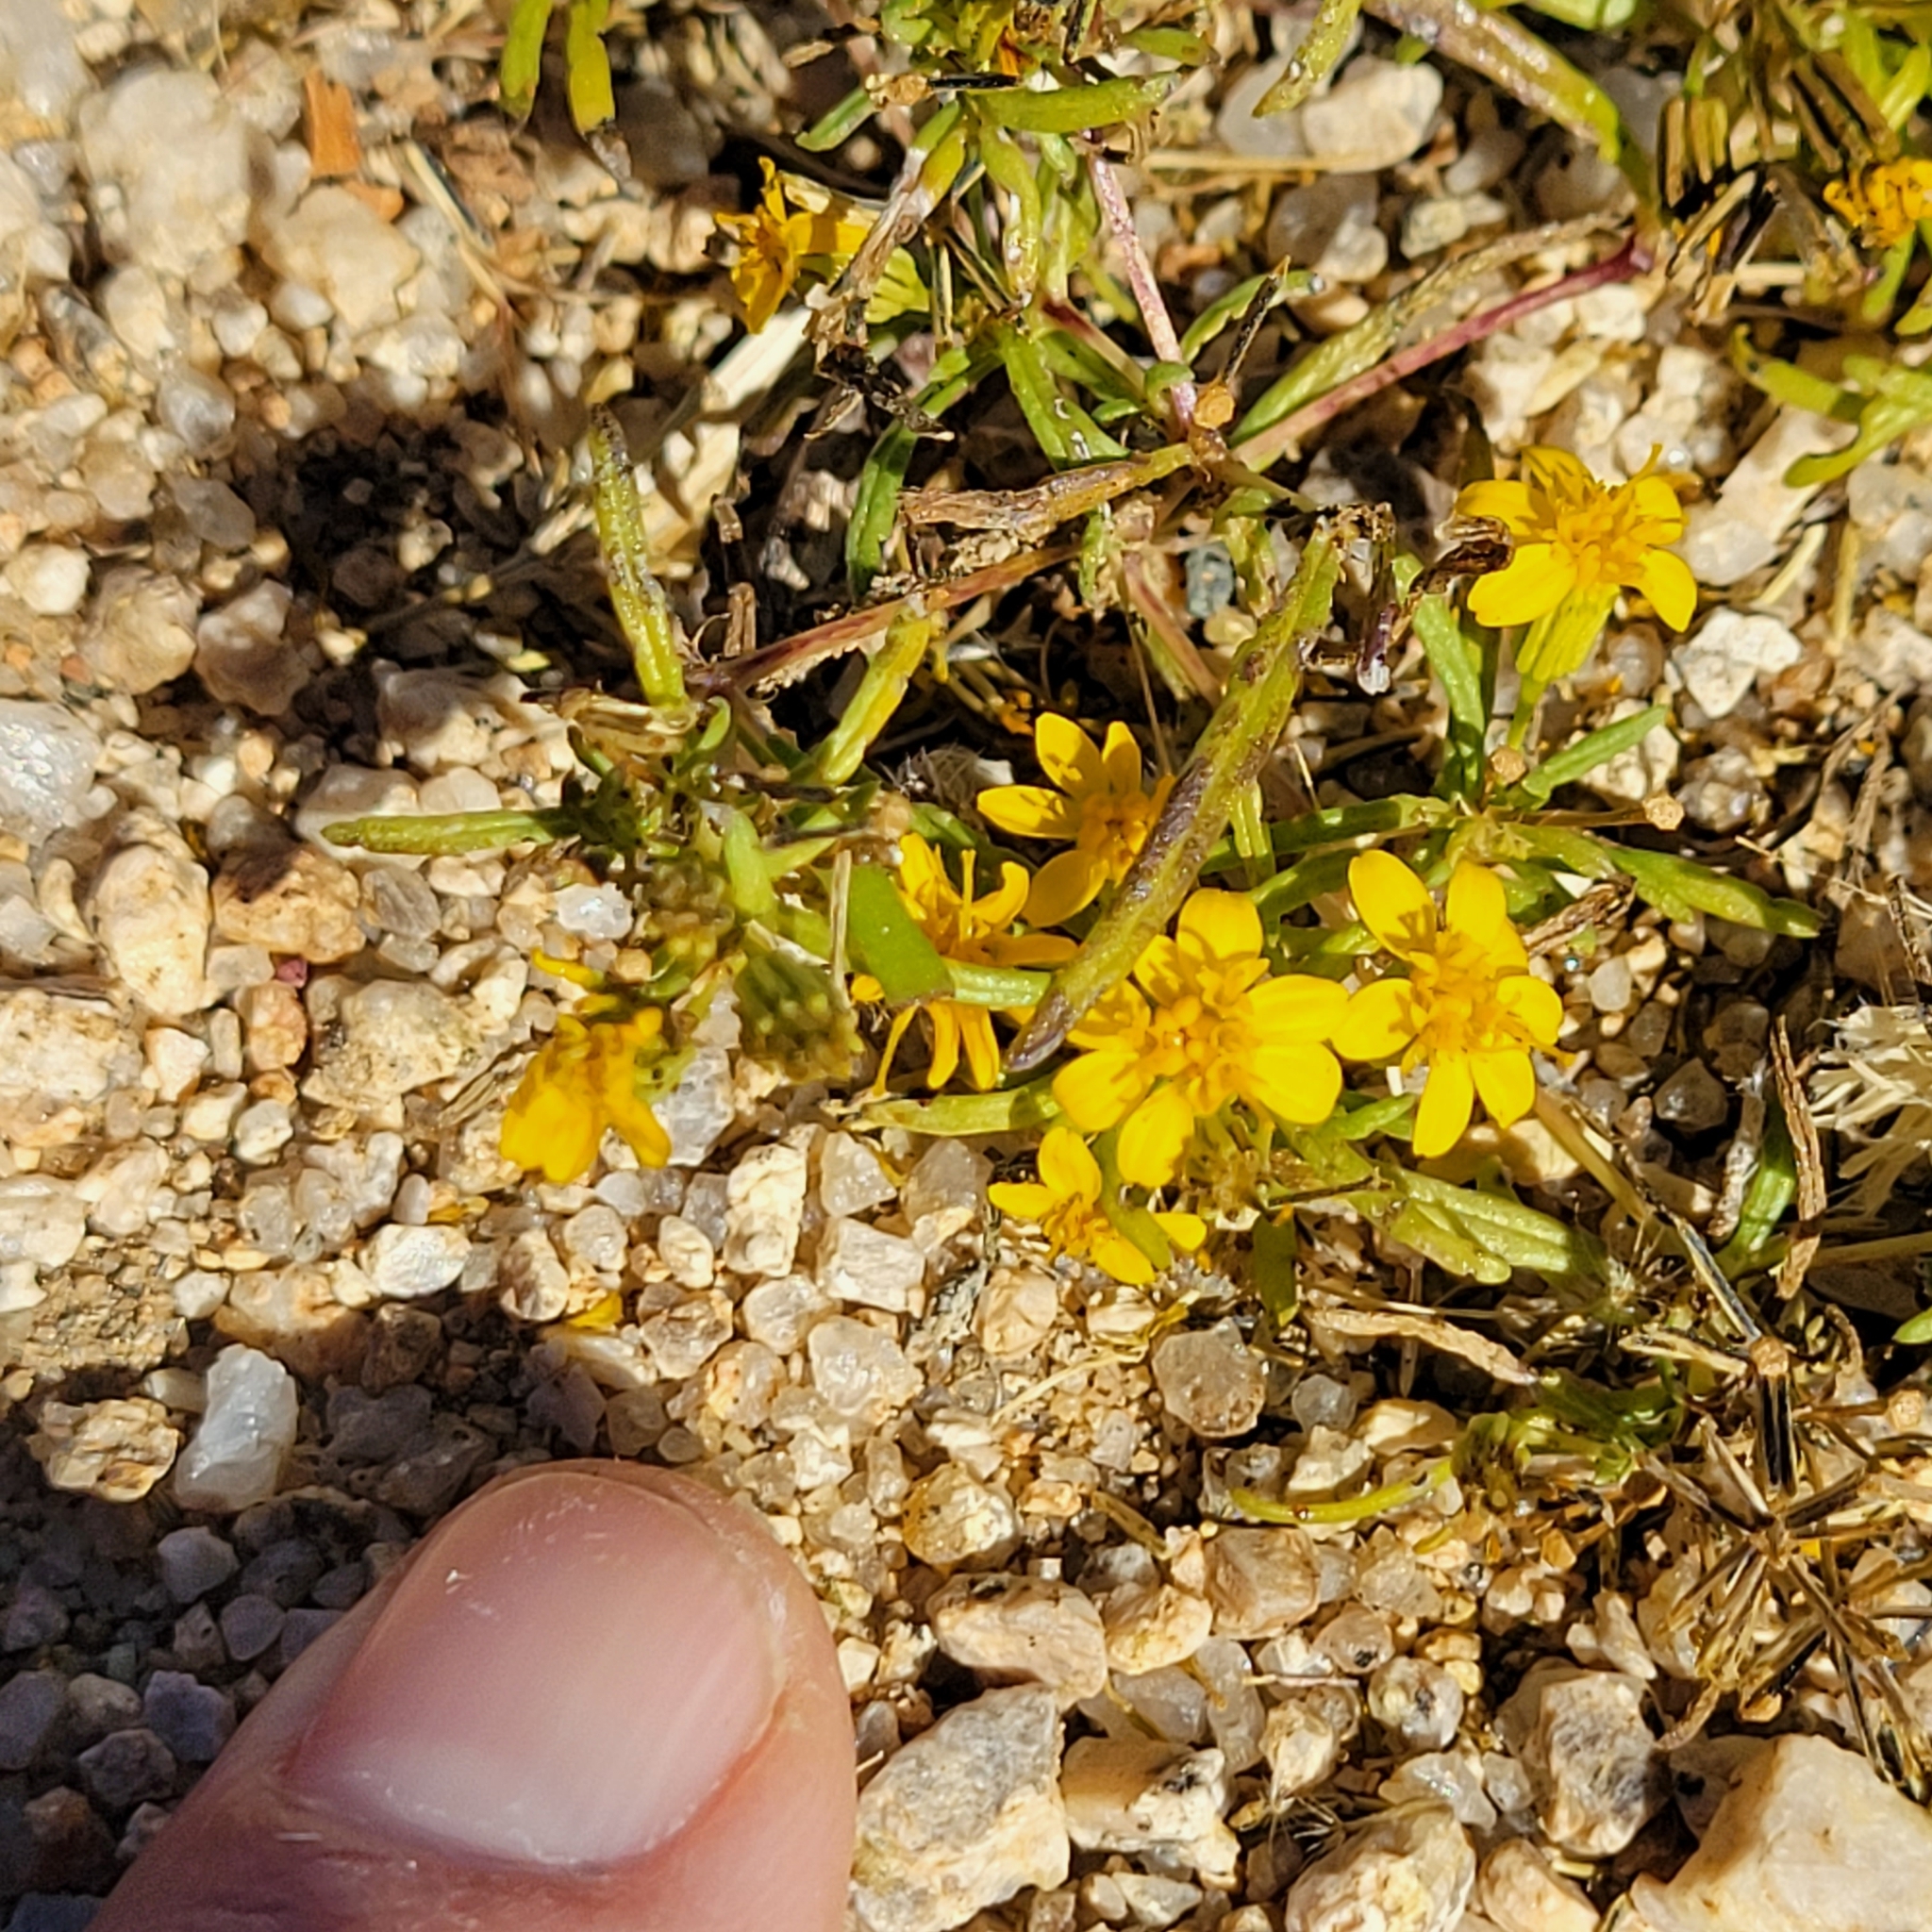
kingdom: Plantae
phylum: Tracheophyta
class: Magnoliopsida
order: Asterales
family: Asteraceae
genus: Pectis
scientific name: Pectis papposa
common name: Many-bristle chinchweed
